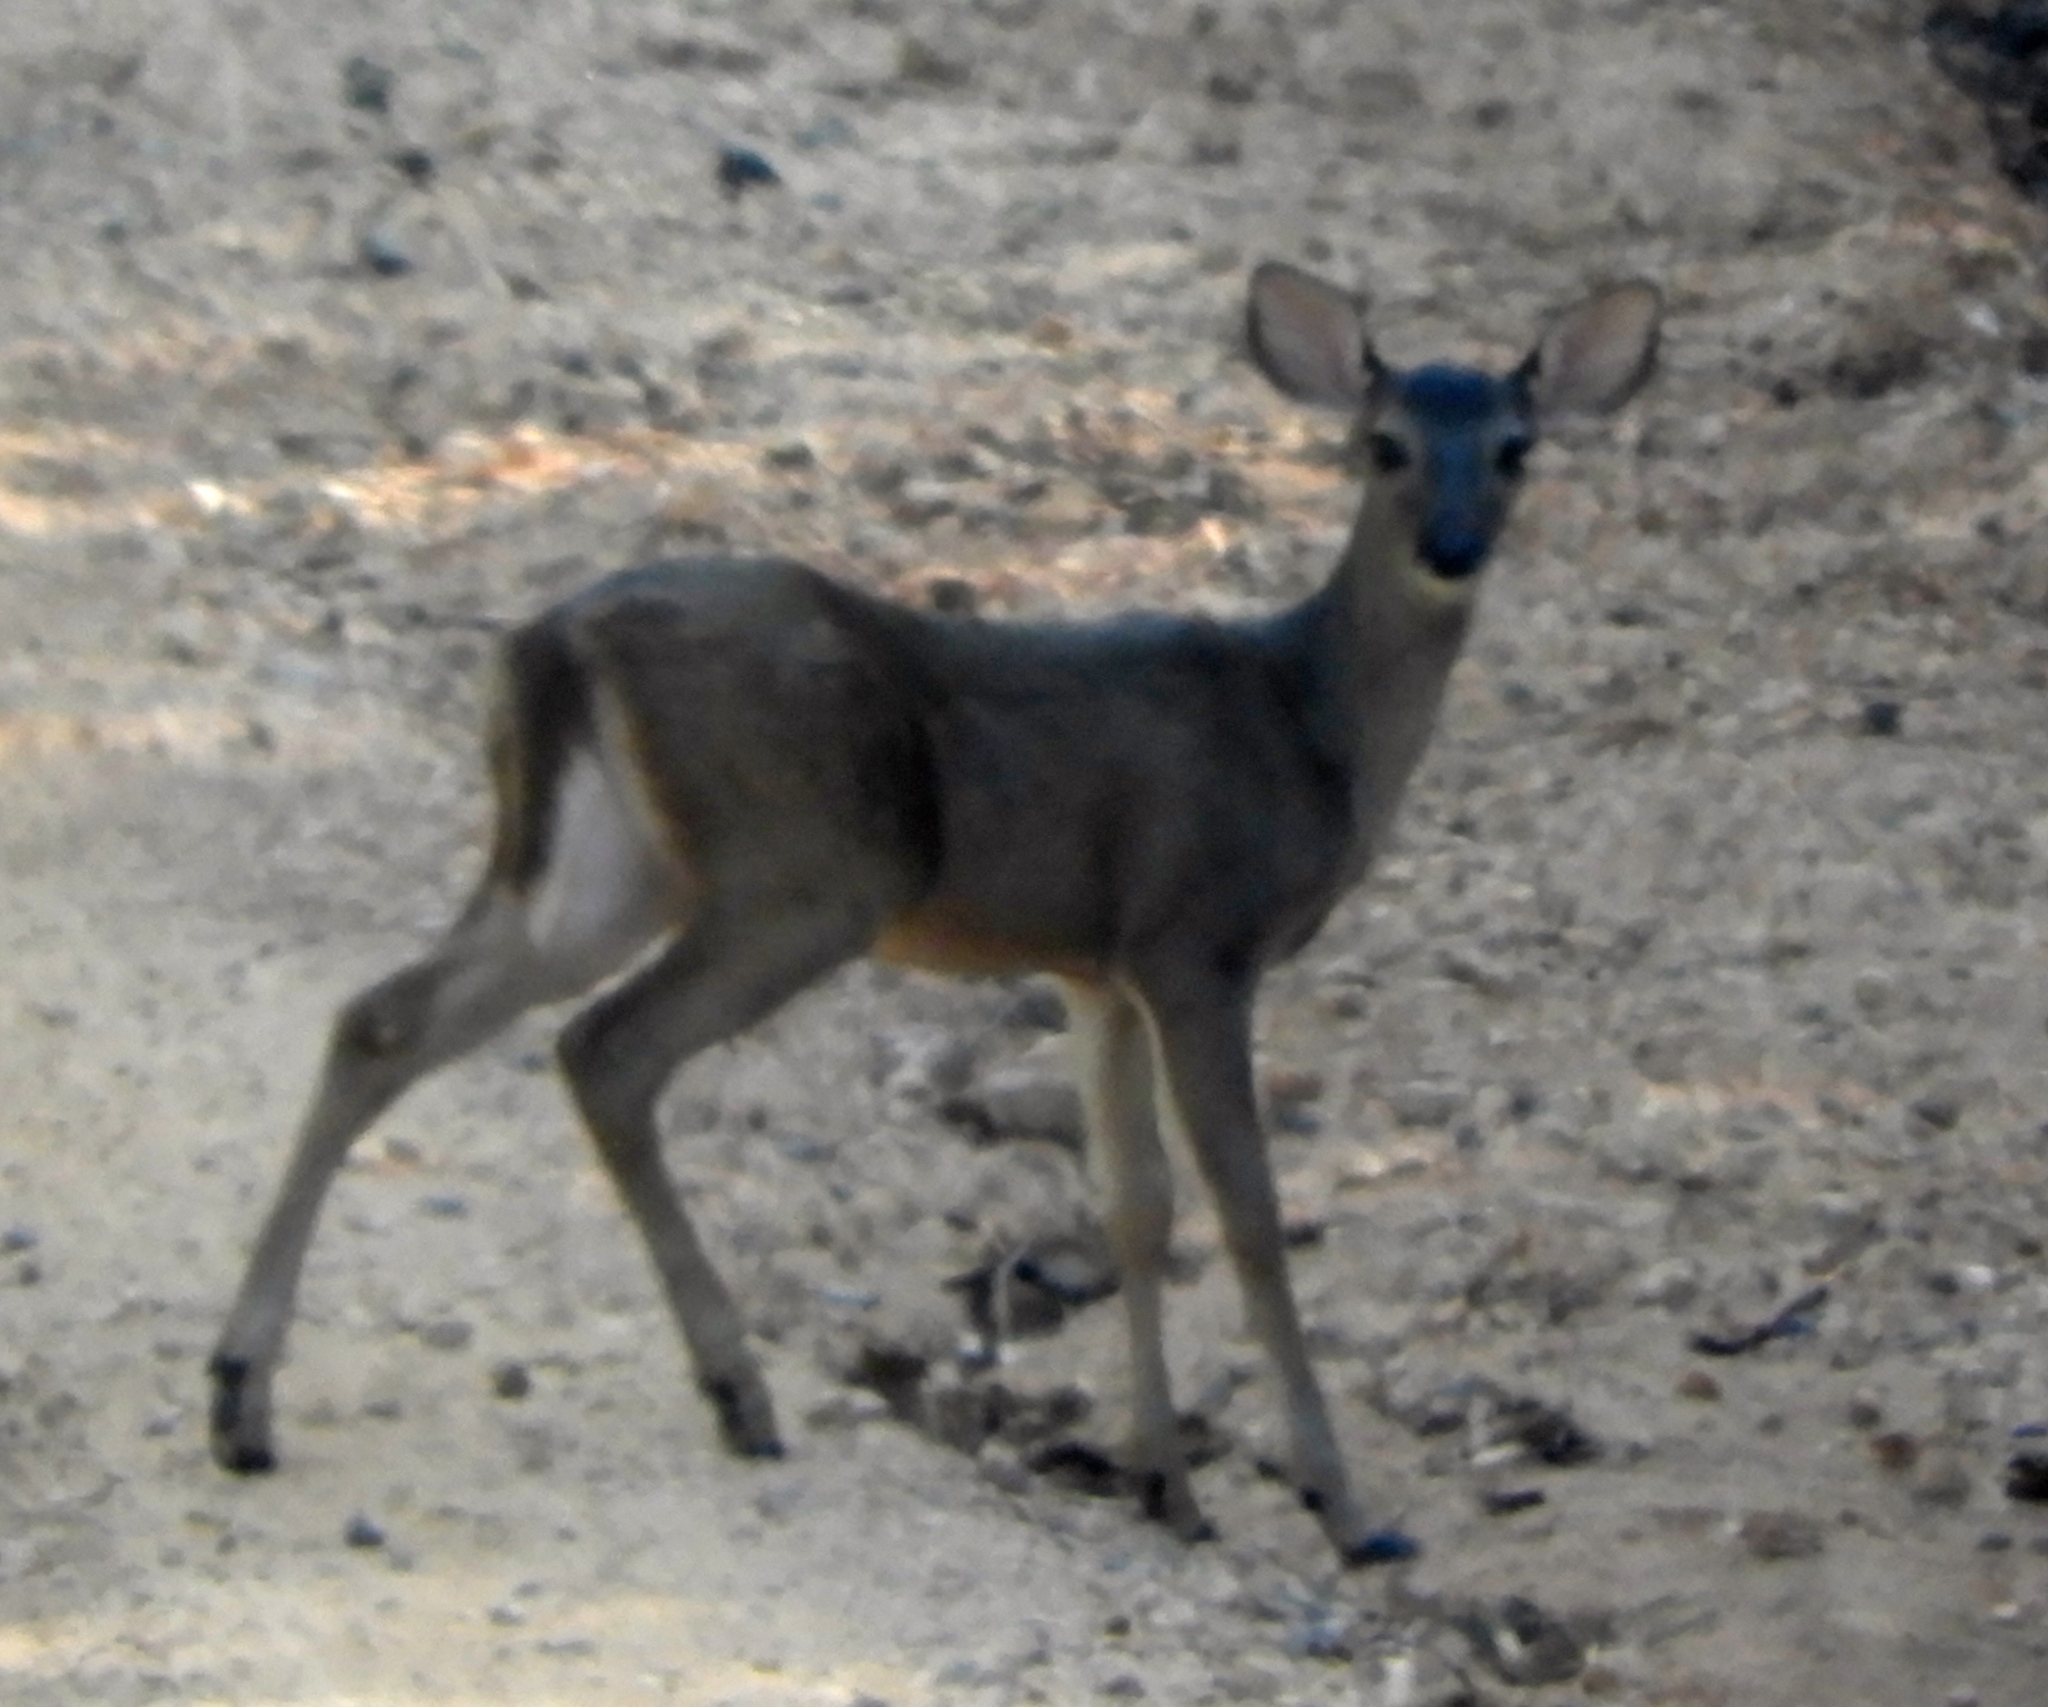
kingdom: Animalia
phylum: Chordata
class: Mammalia
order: Artiodactyla
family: Cervidae
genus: Odocoileus
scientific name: Odocoileus virginianus
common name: White-tailed deer
